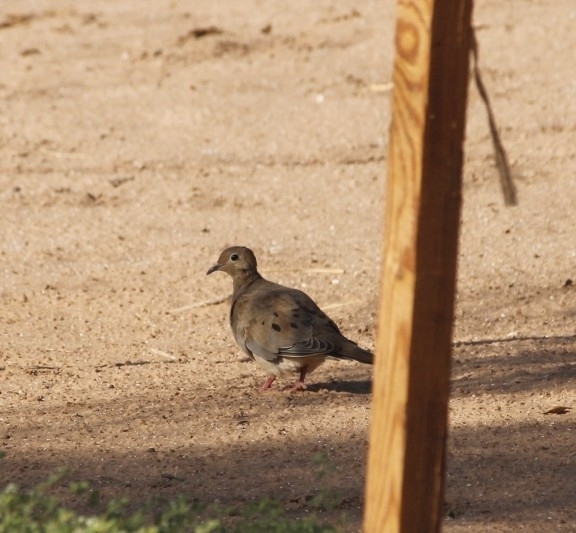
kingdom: Animalia
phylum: Chordata
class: Aves
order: Columbiformes
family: Columbidae
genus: Zenaida
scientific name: Zenaida macroura
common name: Mourning dove
